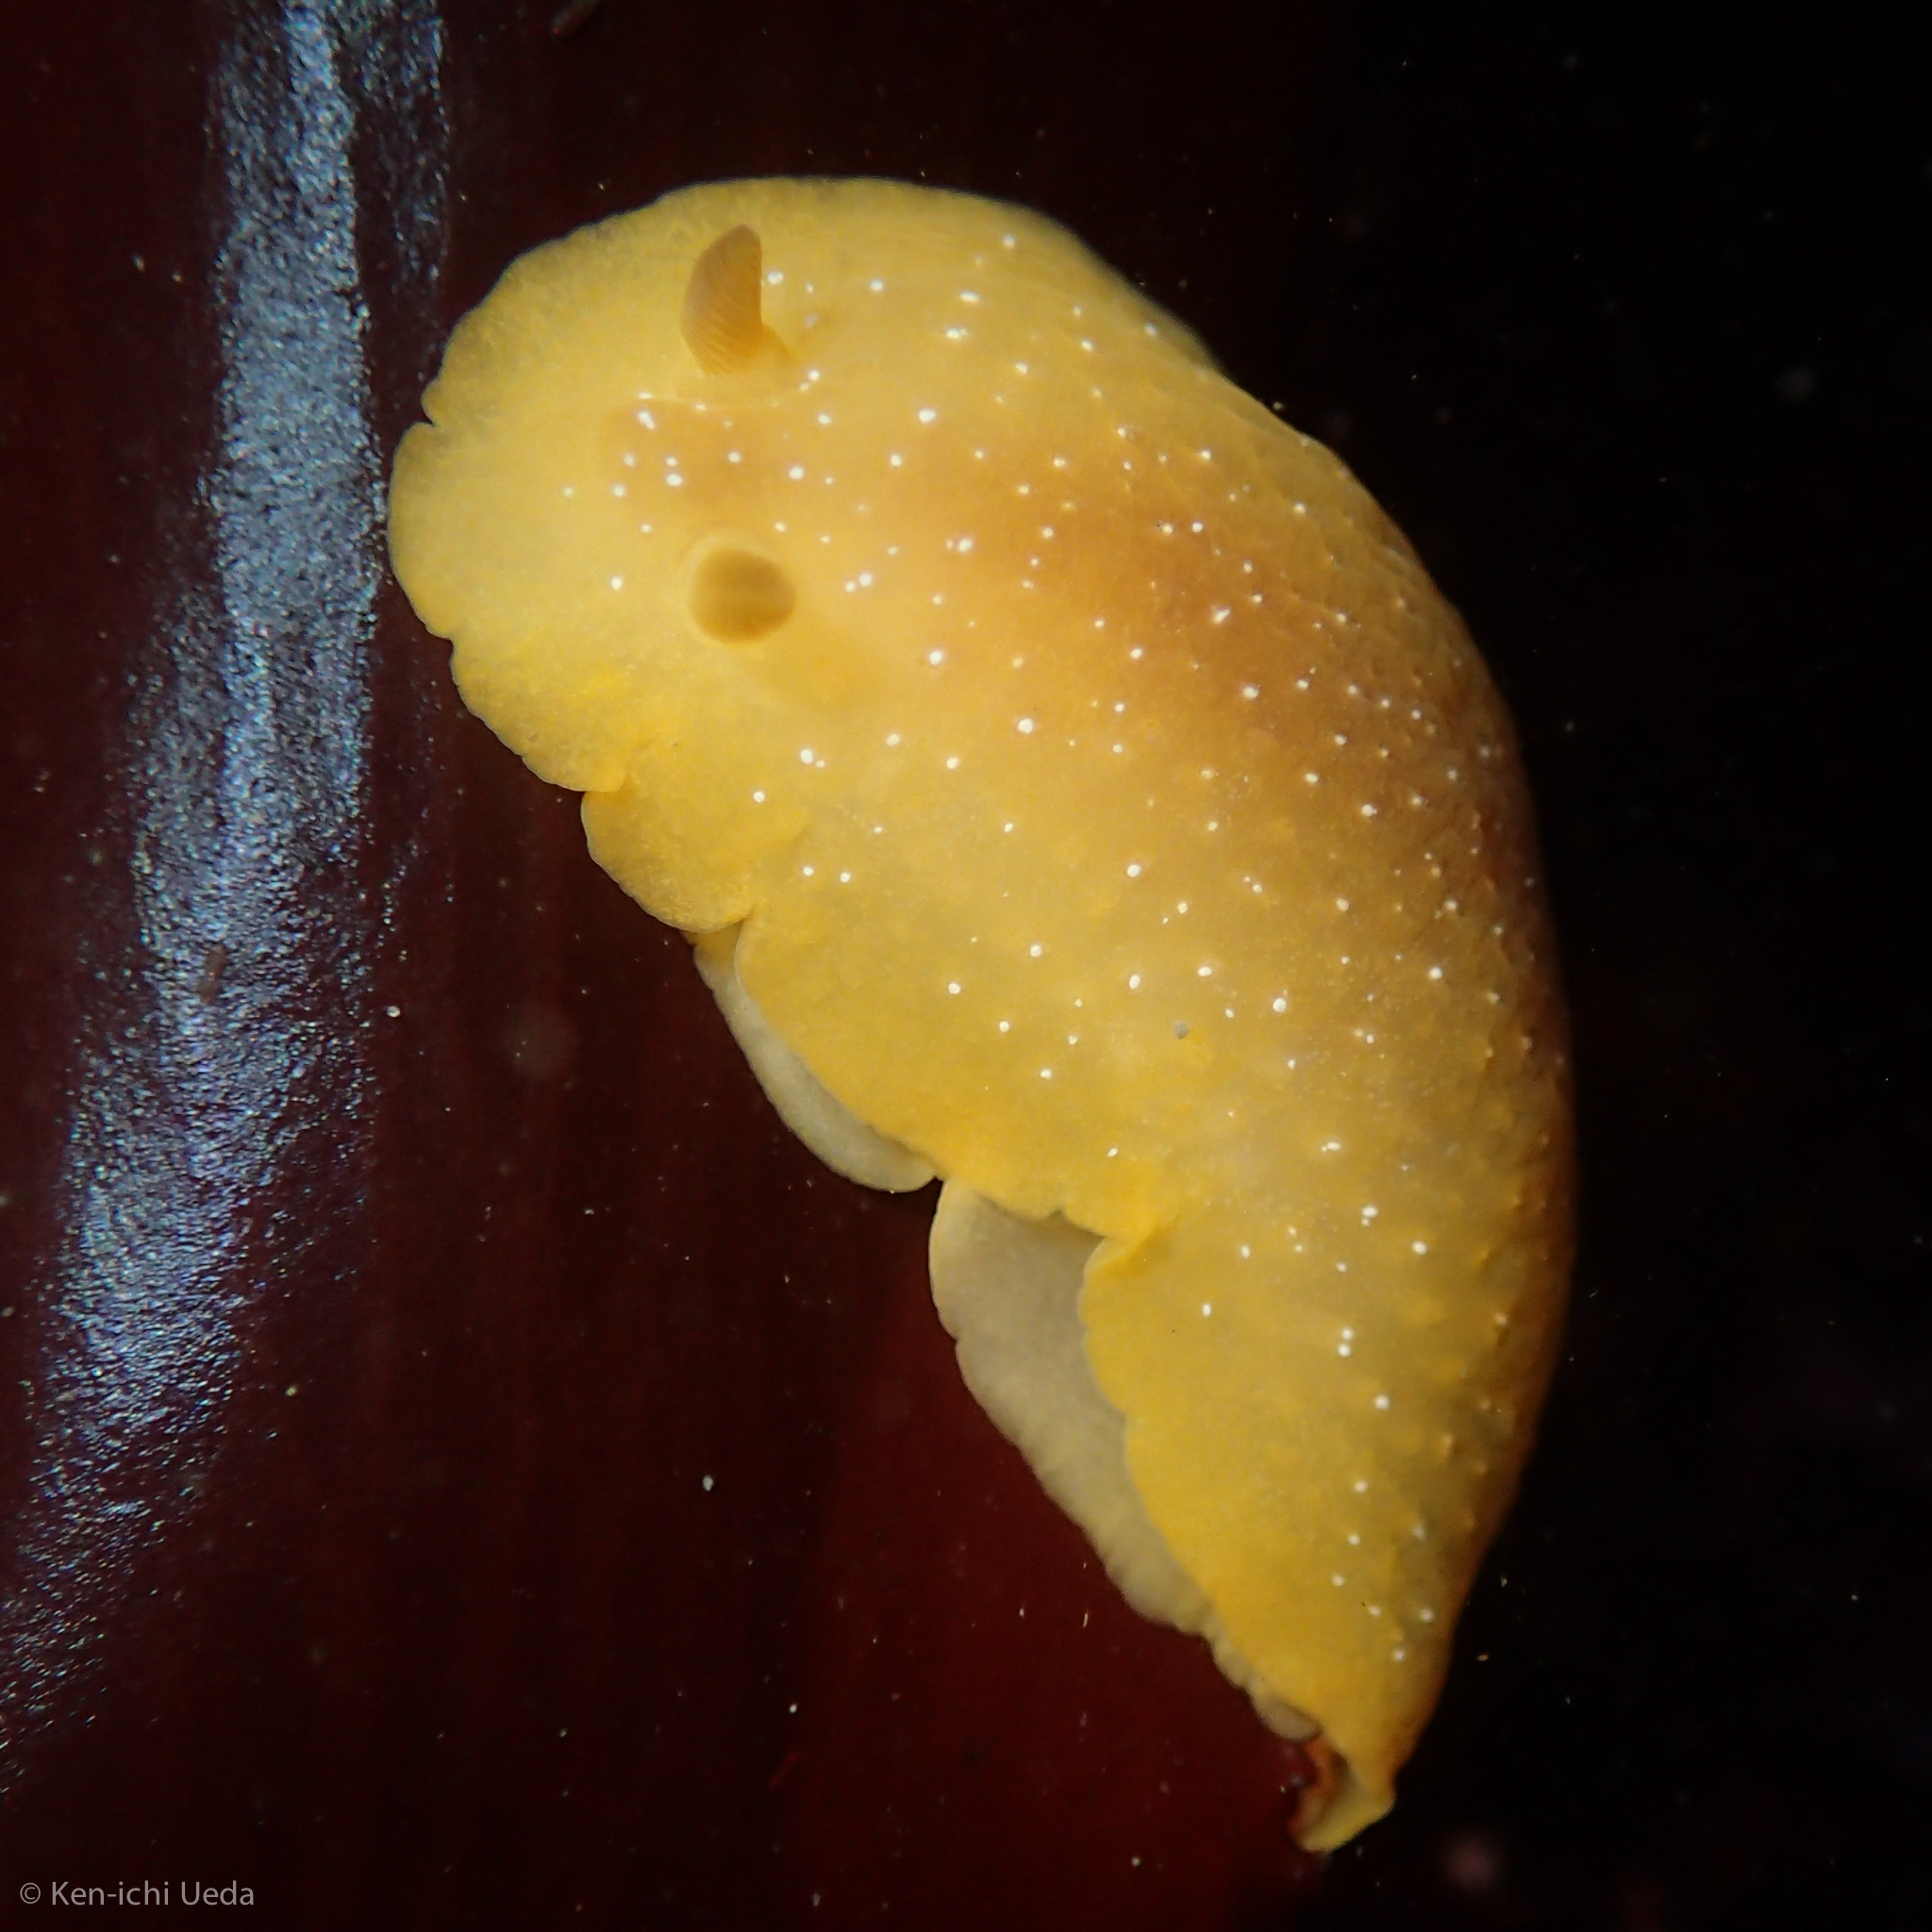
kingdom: Animalia
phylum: Mollusca
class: Gastropoda
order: Nudibranchia
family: Dendrodorididae
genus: Doriopsilla
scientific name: Doriopsilla fulva
